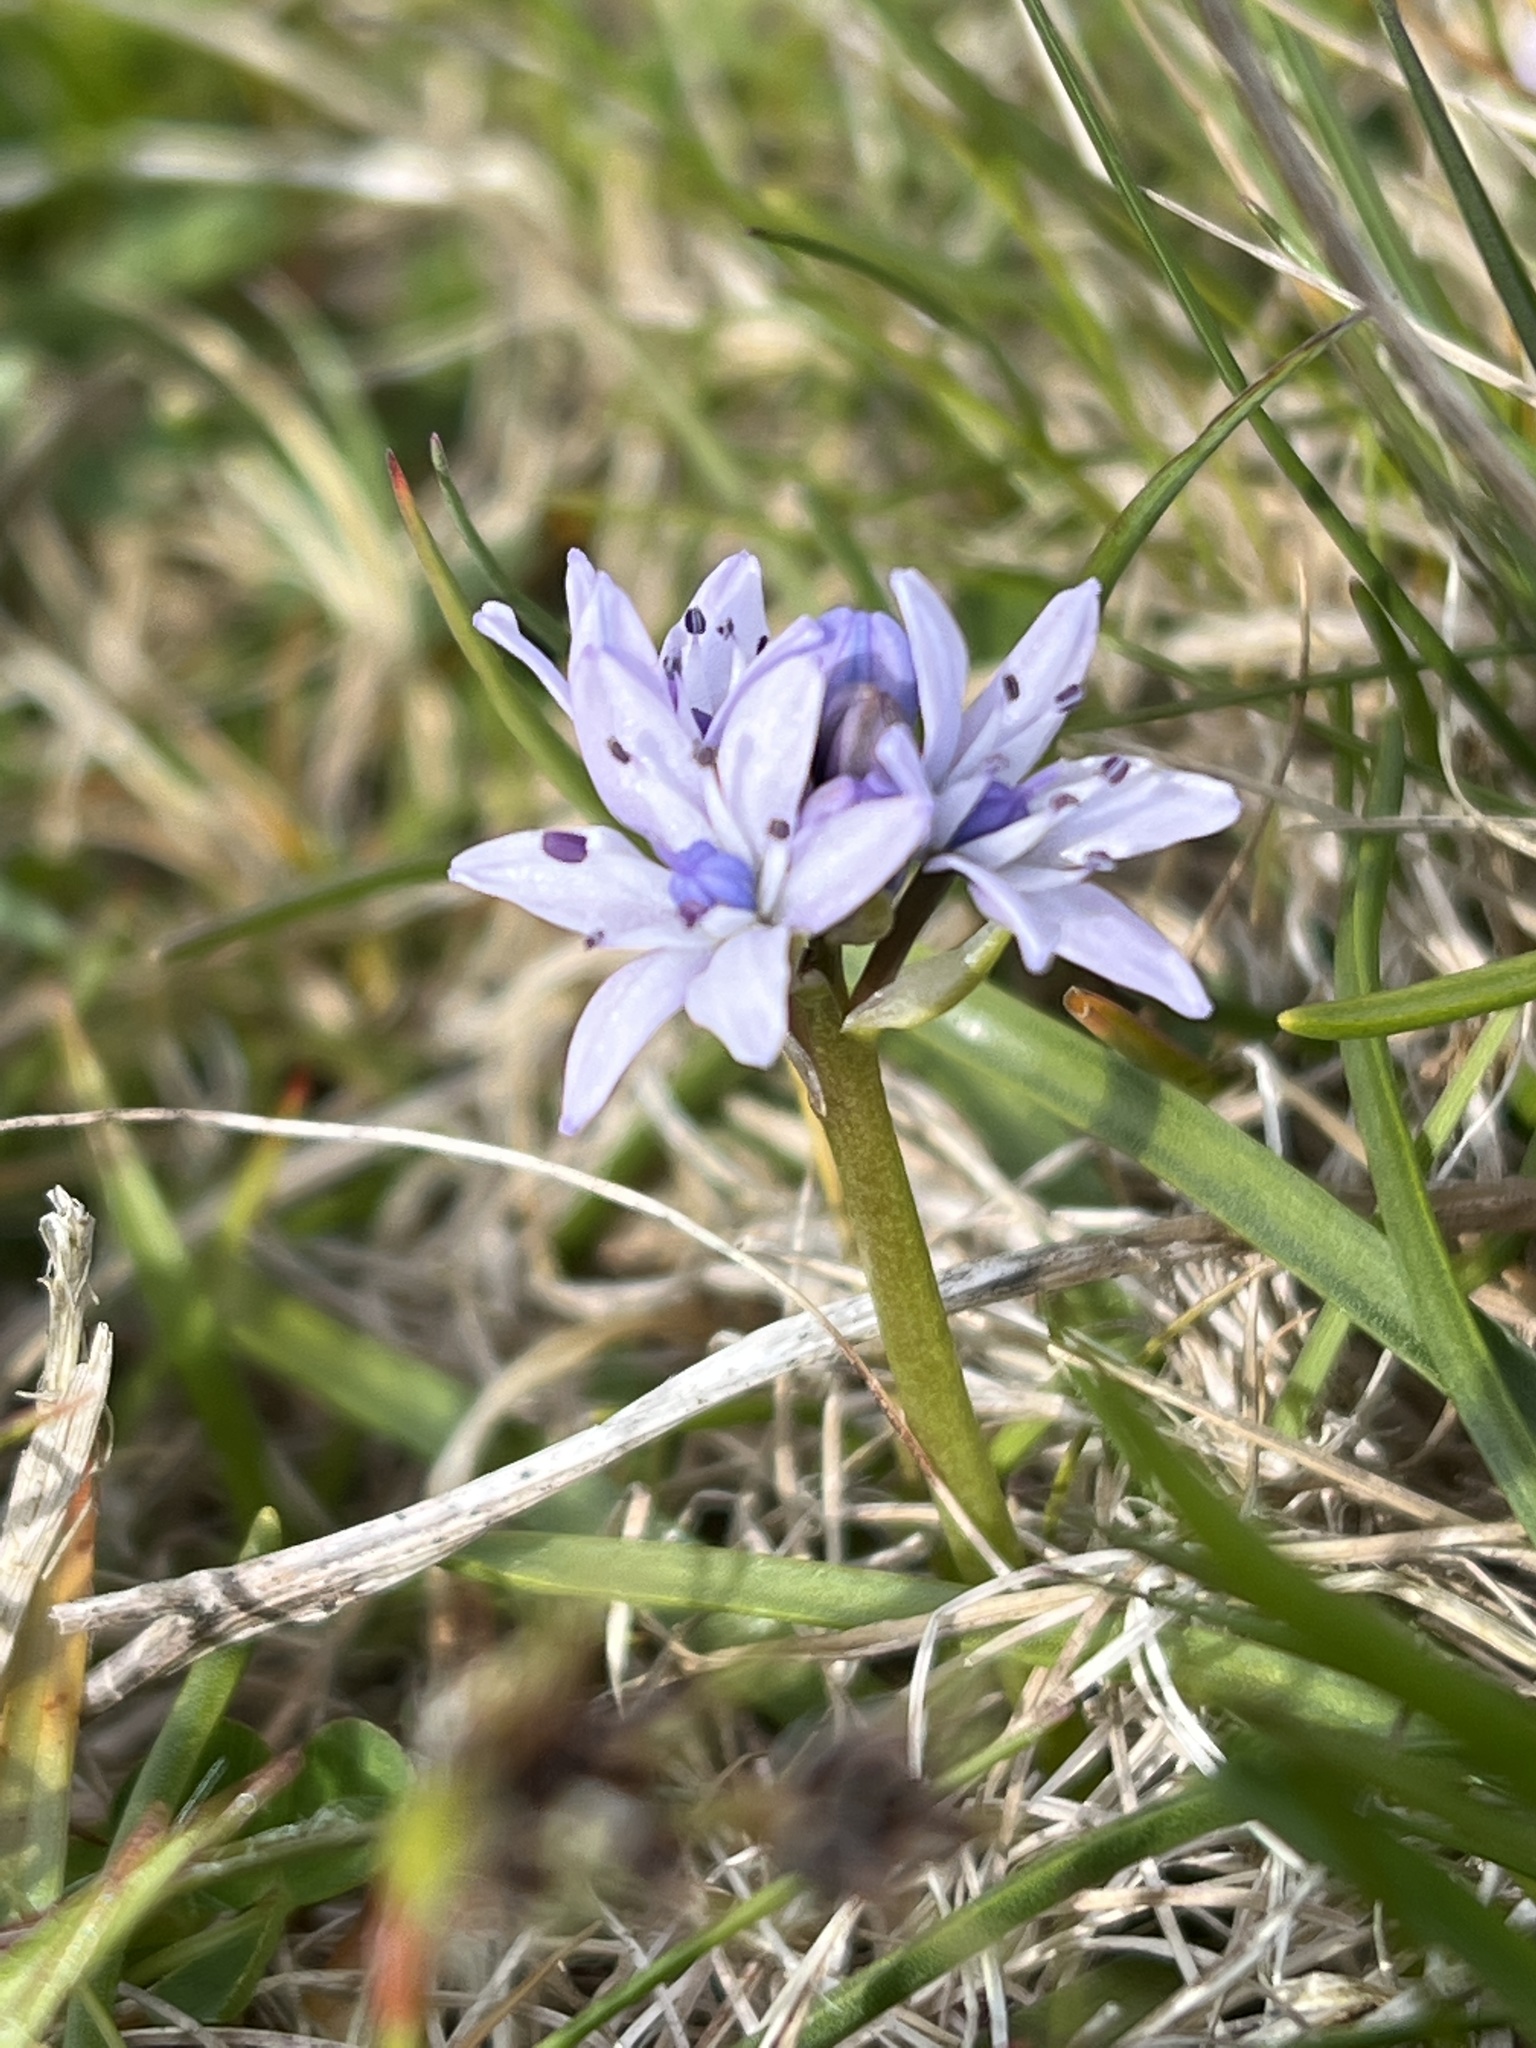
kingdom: Plantae
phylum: Tracheophyta
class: Liliopsida
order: Asparagales
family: Asparagaceae
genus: Scilla
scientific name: Scilla verna
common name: Spring squill
